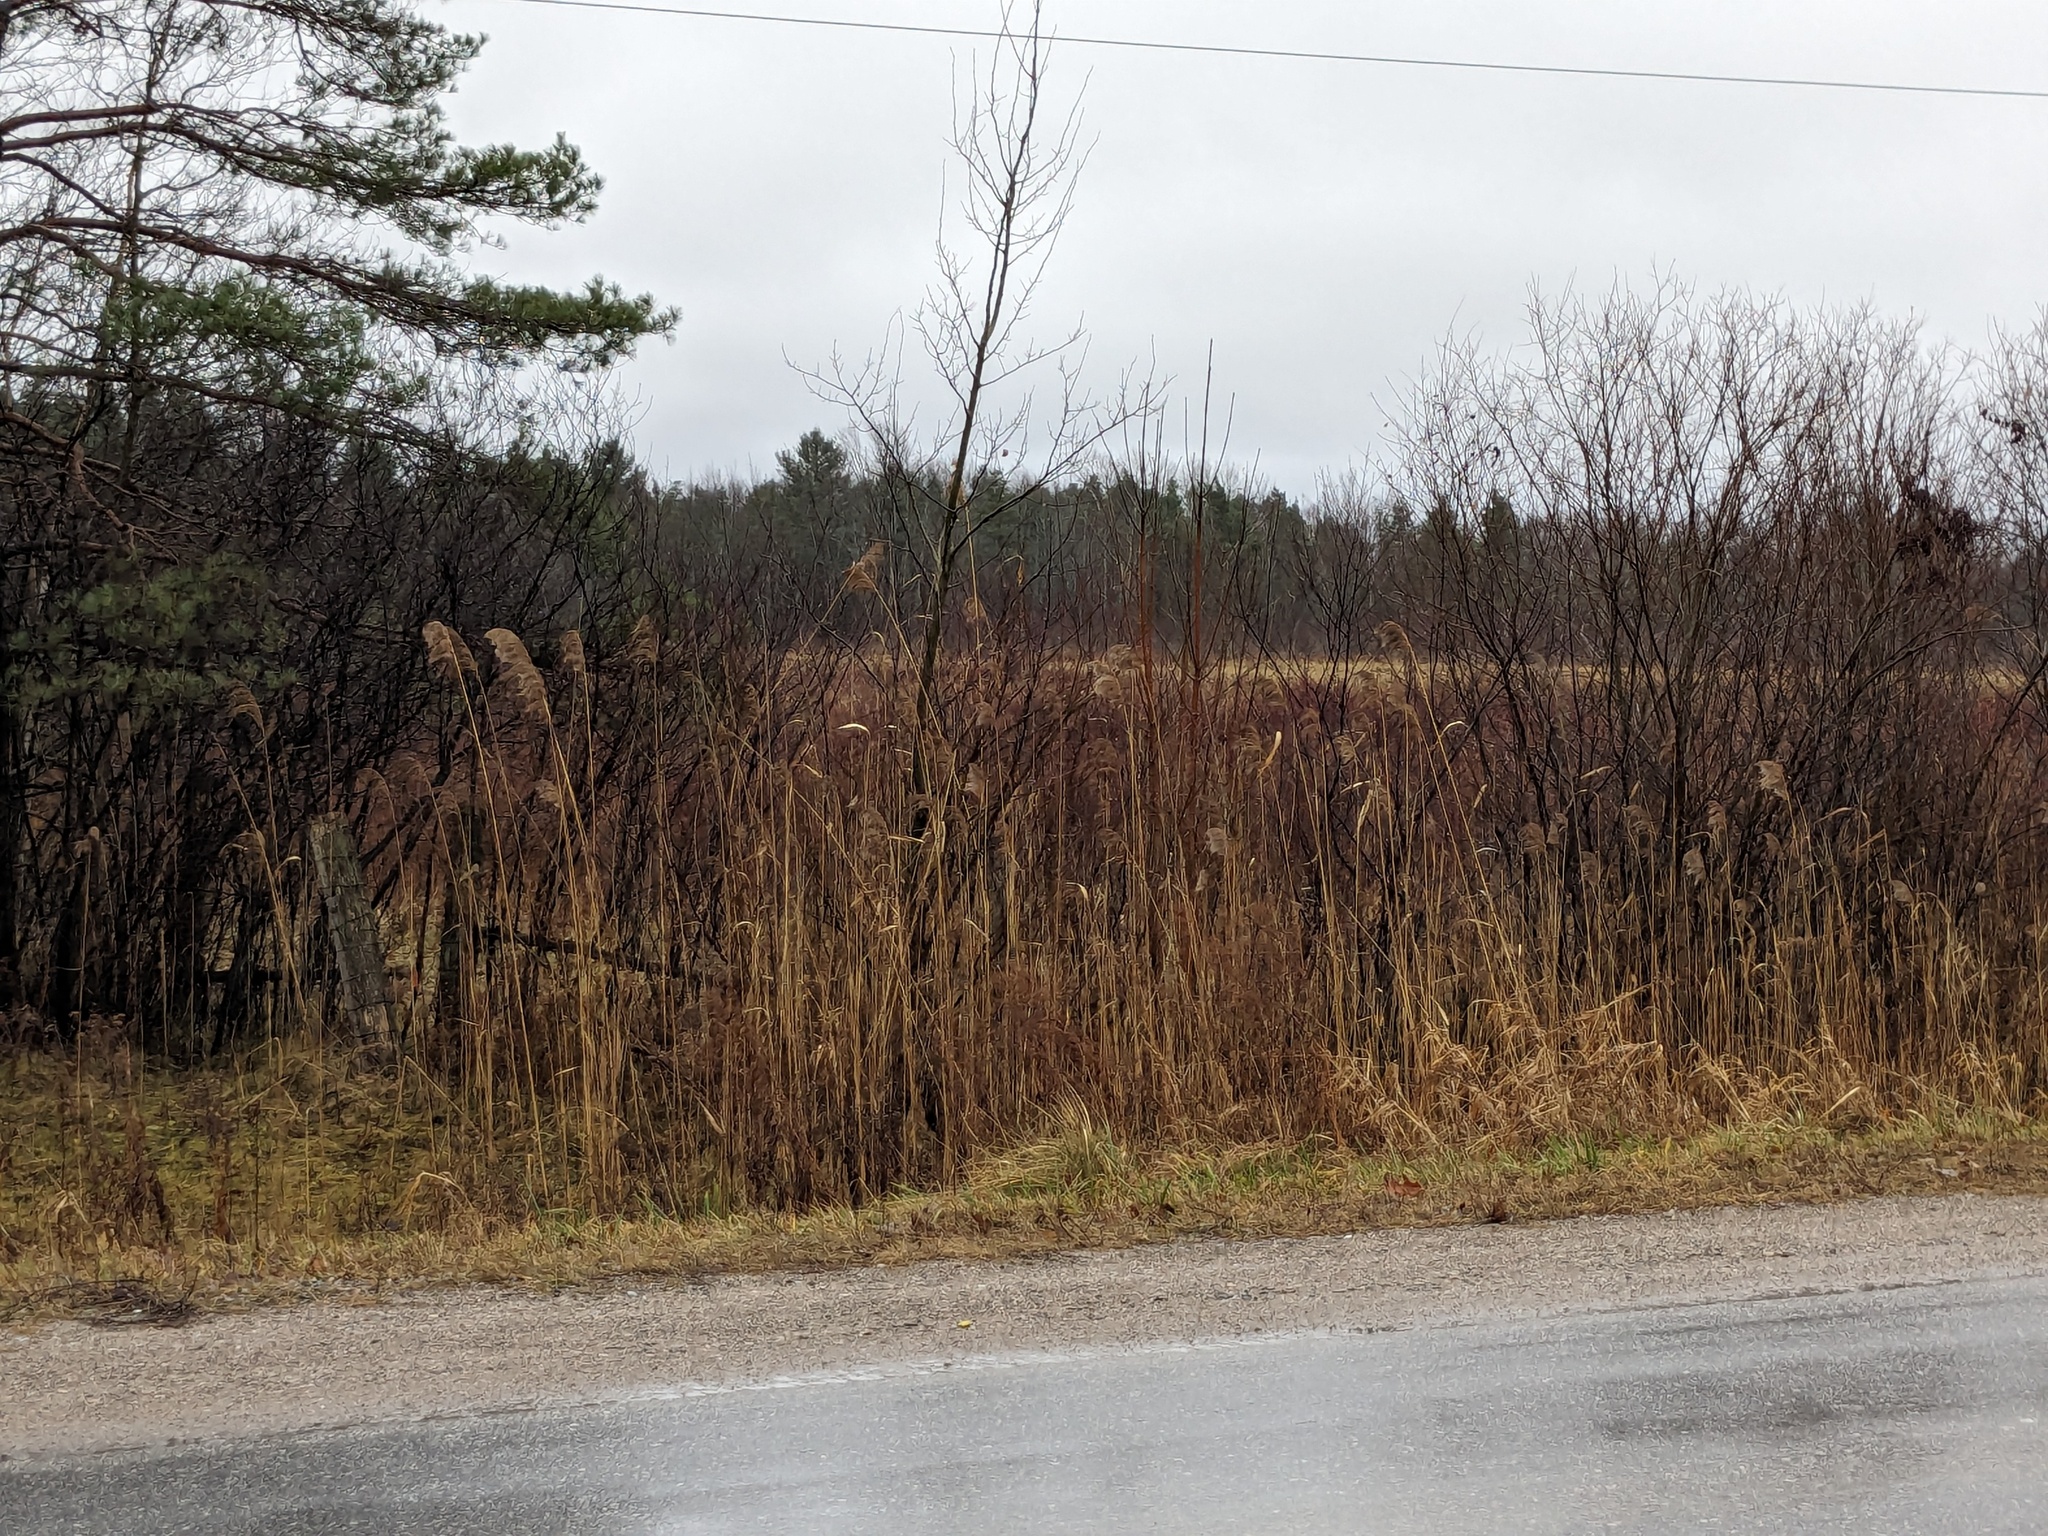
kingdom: Plantae
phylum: Tracheophyta
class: Liliopsida
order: Poales
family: Poaceae
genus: Phragmites
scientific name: Phragmites australis
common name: Common reed
